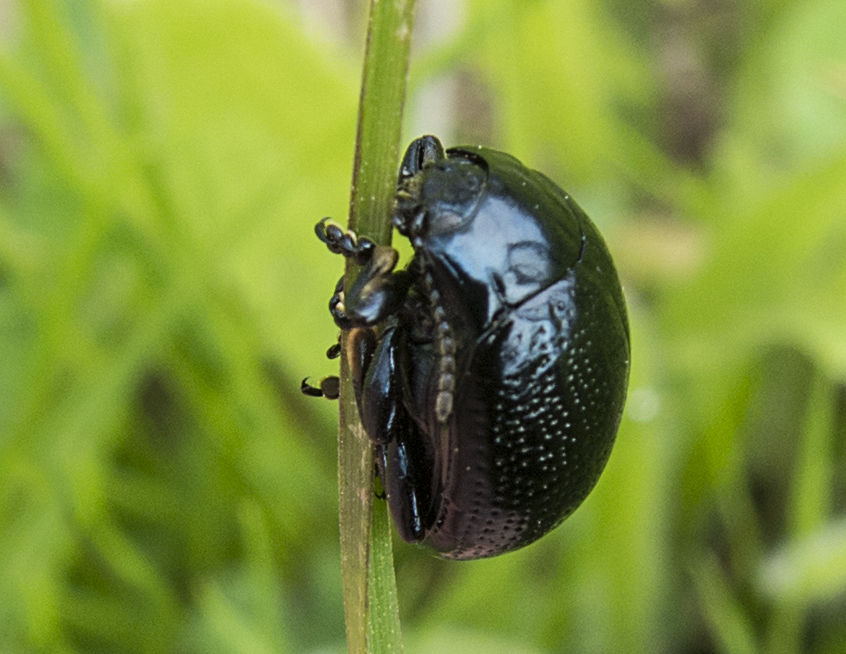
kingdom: Animalia
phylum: Arthropoda
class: Insecta
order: Coleoptera
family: Chrysomelidae
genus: Chrysolina
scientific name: Chrysolina vernalis
